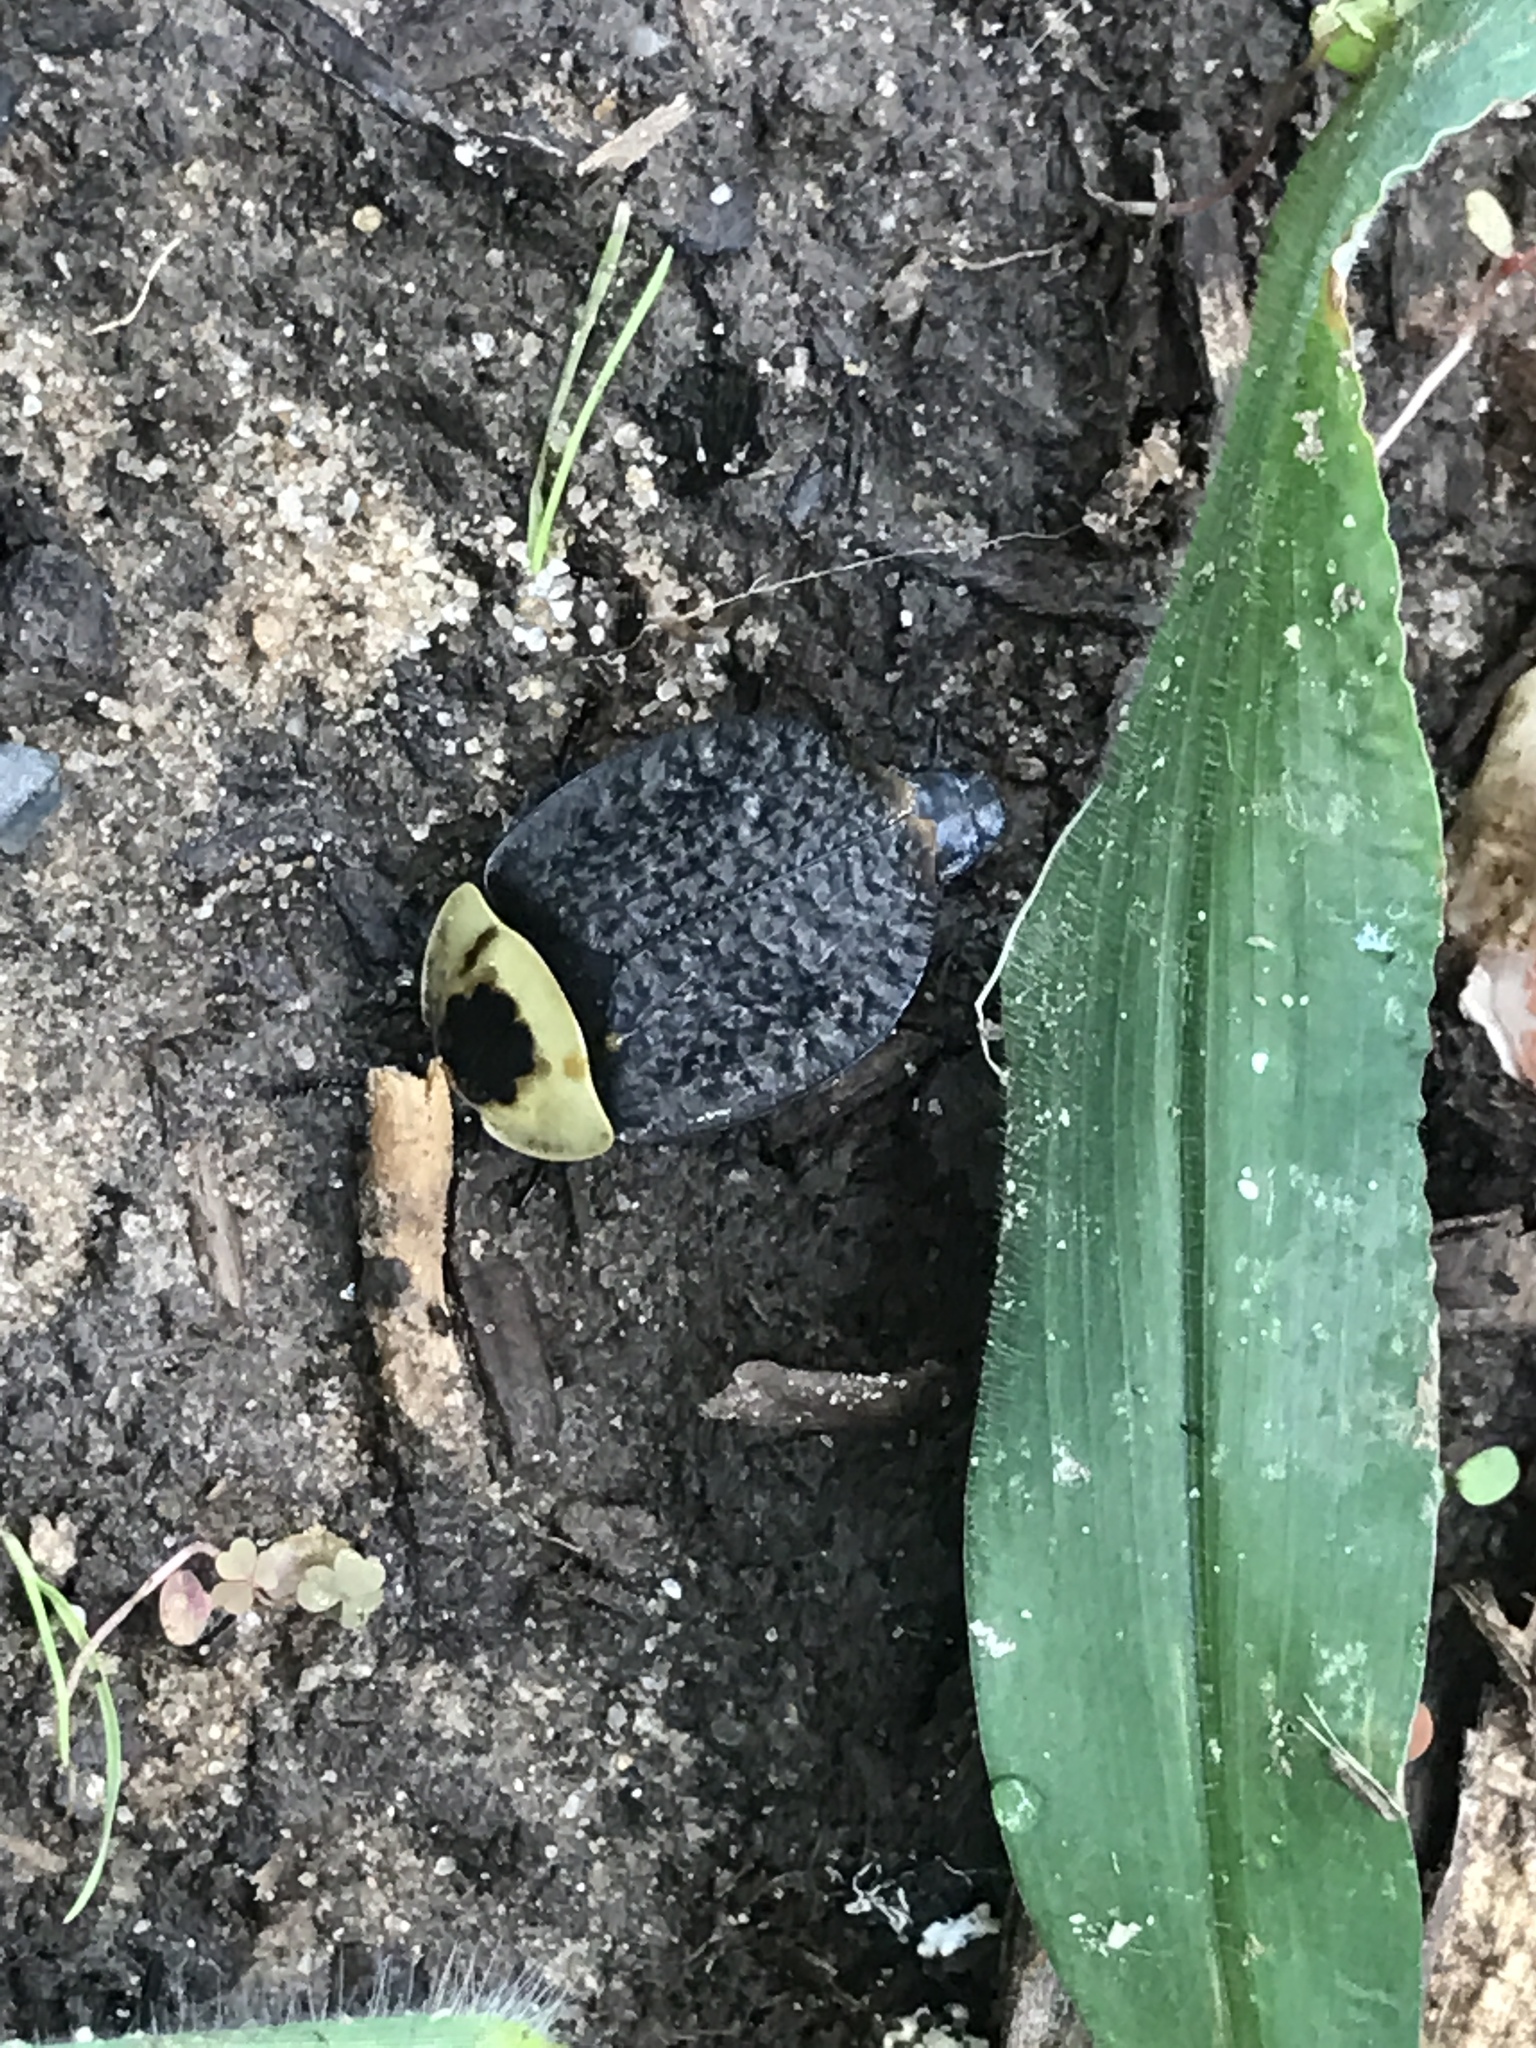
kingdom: Animalia
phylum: Arthropoda
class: Insecta
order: Coleoptera
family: Staphylinidae
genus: Necrophila
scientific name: Necrophila americana
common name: American carrion beetle
